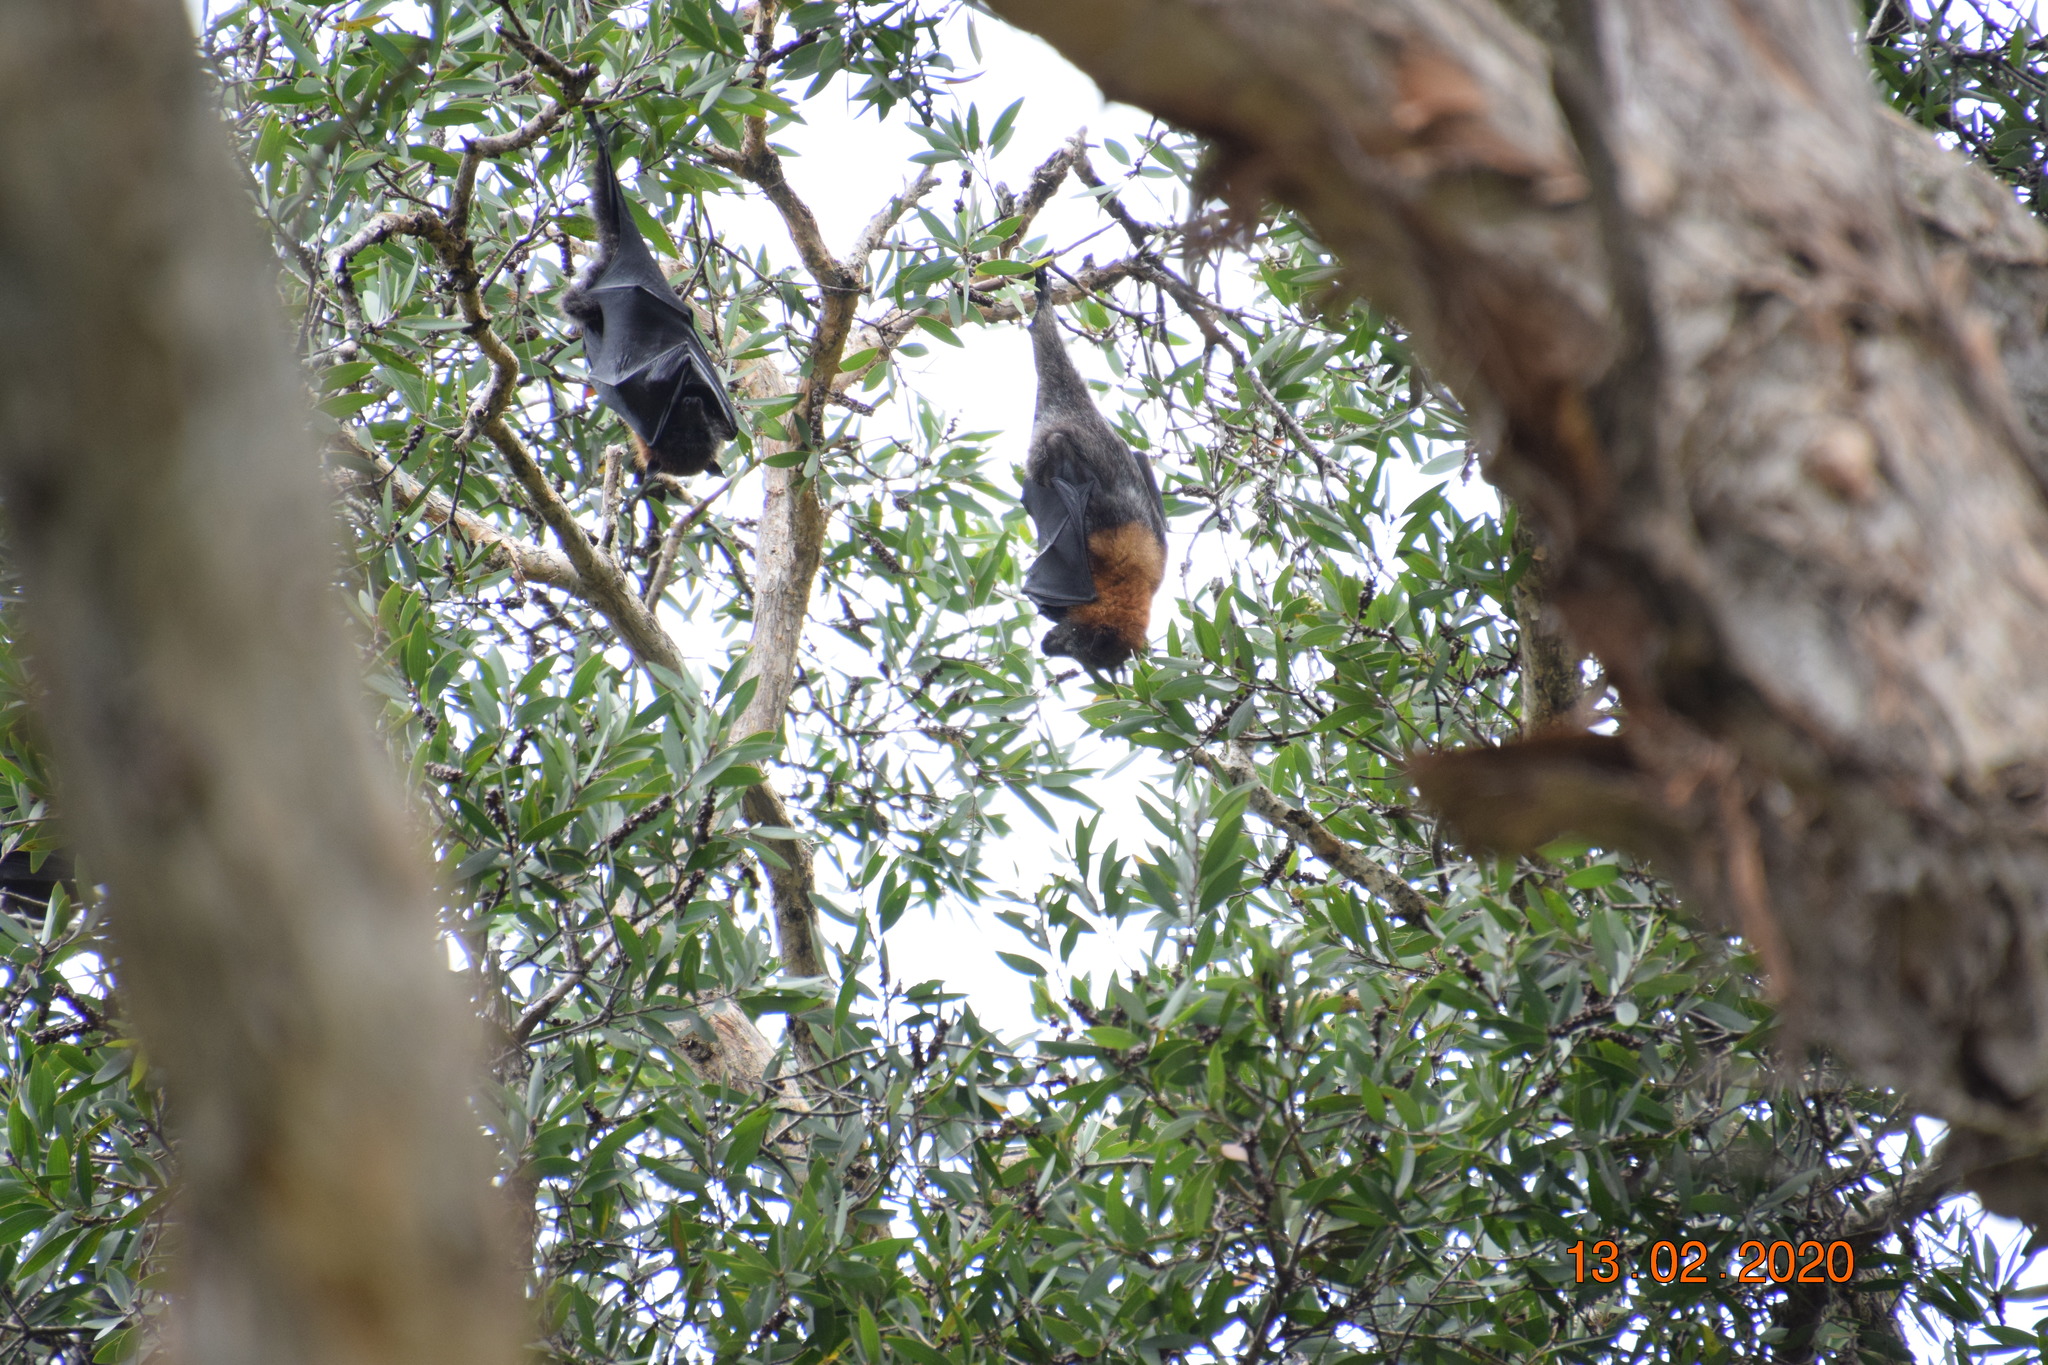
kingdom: Animalia
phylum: Chordata
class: Mammalia
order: Chiroptera
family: Pteropodidae
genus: Pteropus
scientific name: Pteropus poliocephalus
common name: Gray-headed flying fox
